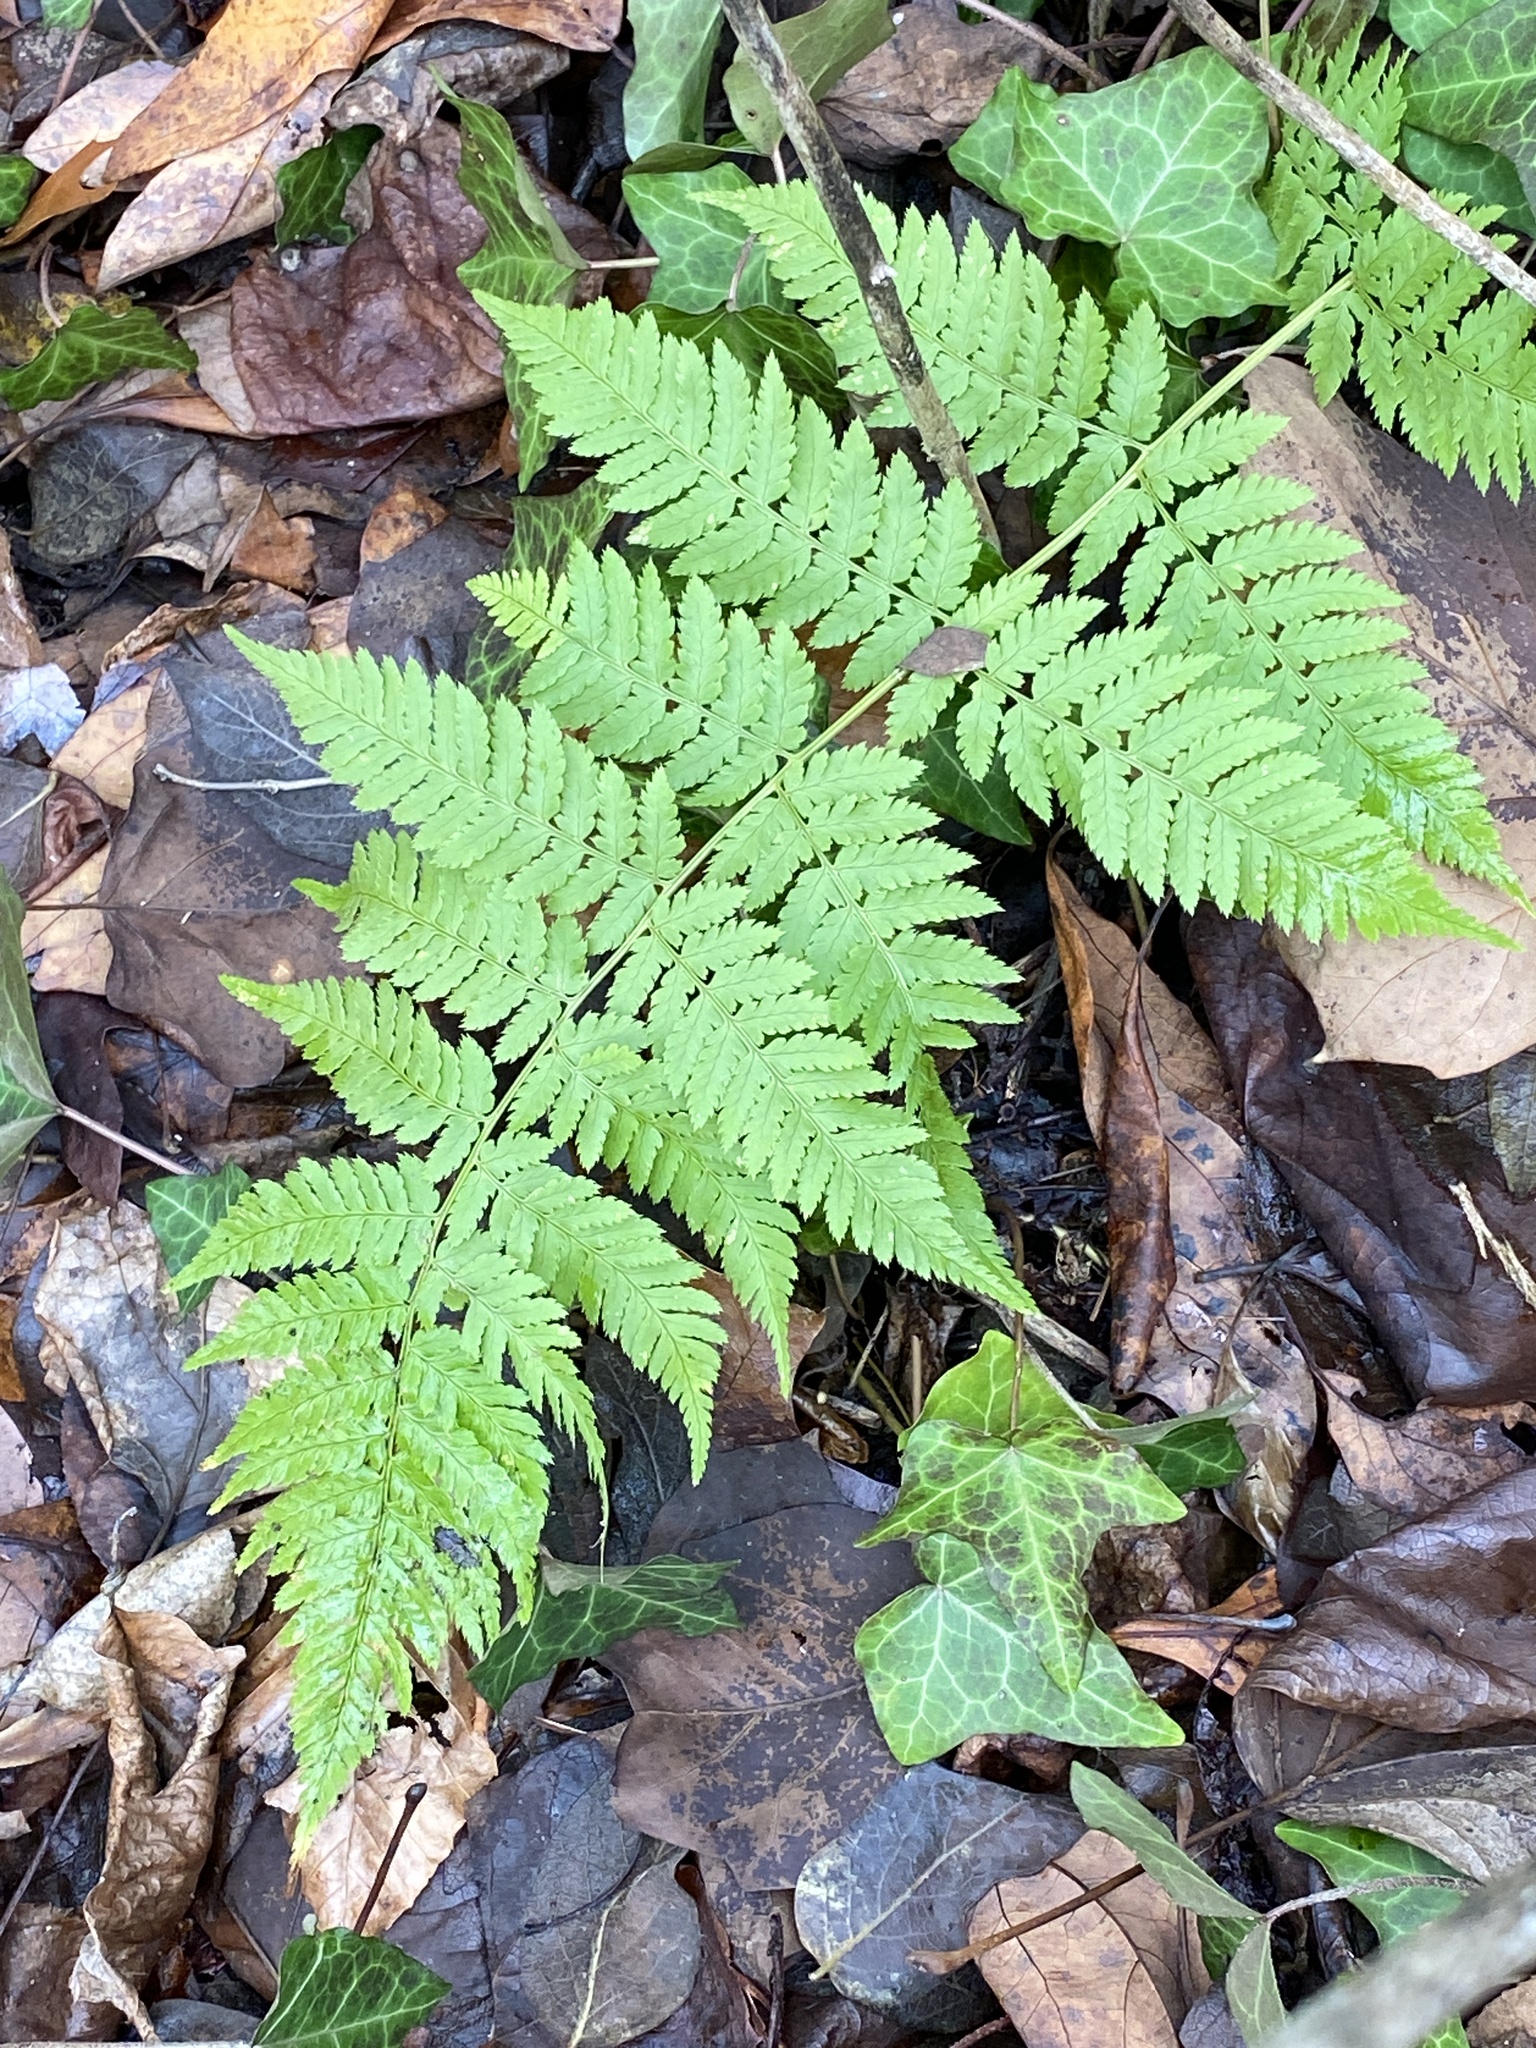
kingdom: Plantae
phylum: Tracheophyta
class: Polypodiopsida
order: Polypodiales
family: Dryopteridaceae
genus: Dryopteris
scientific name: Dryopteris intermedia
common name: Evergreen wood fern
